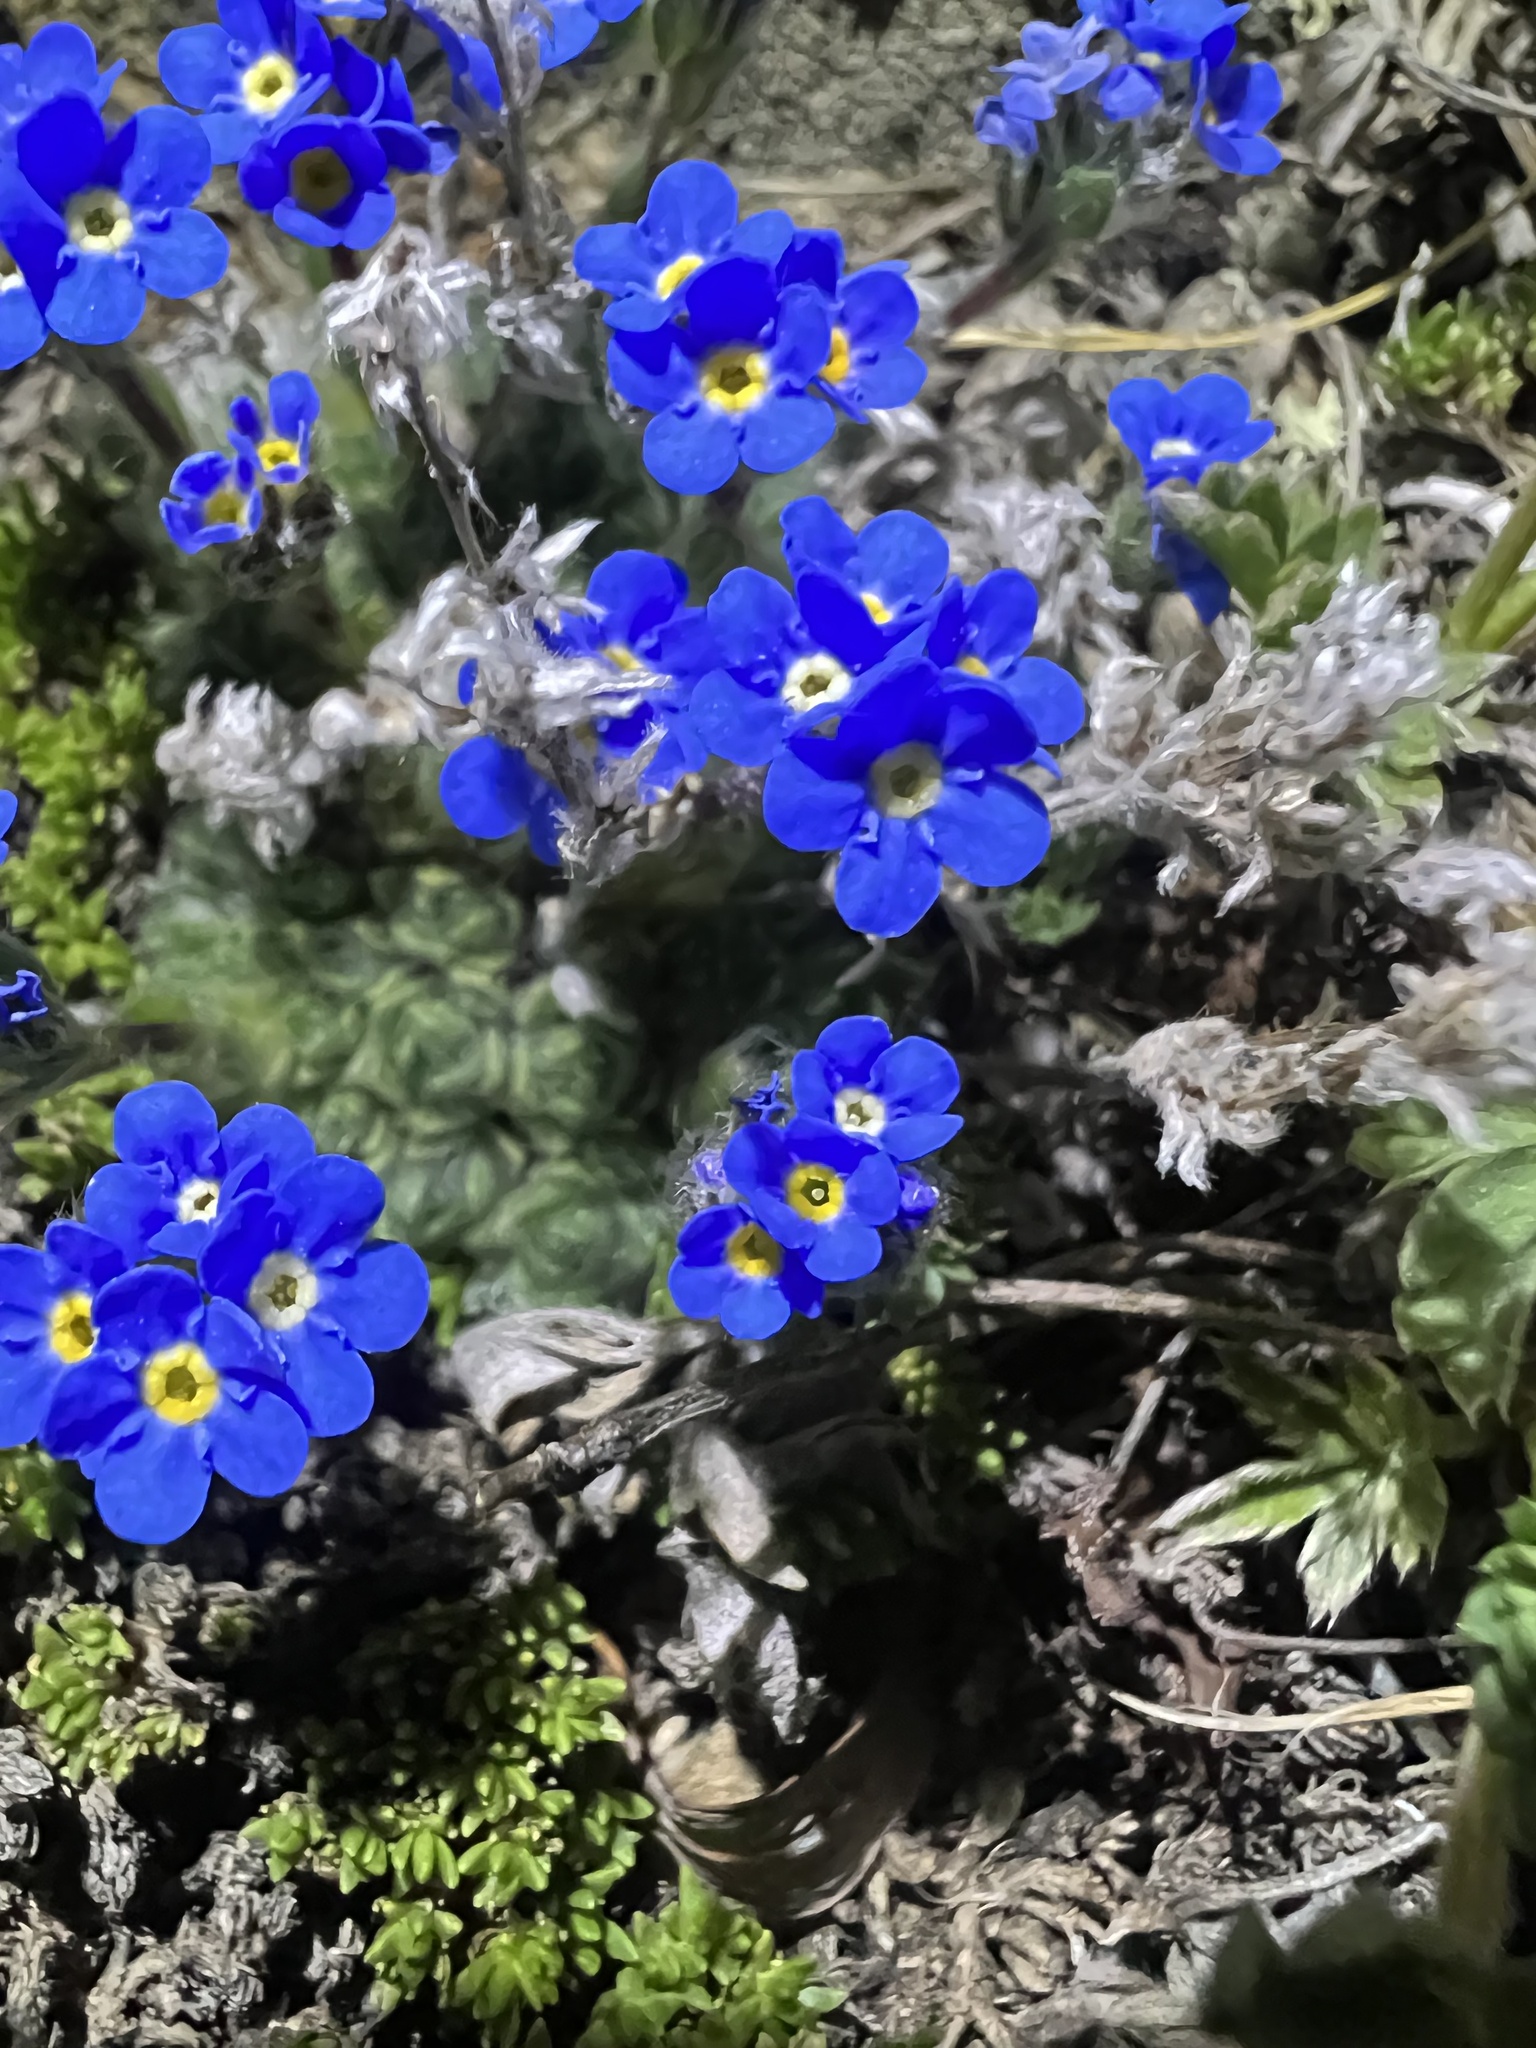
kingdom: Plantae
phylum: Tracheophyta
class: Magnoliopsida
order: Boraginales
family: Boraginaceae
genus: Eritrichium
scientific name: Eritrichium argenteum
